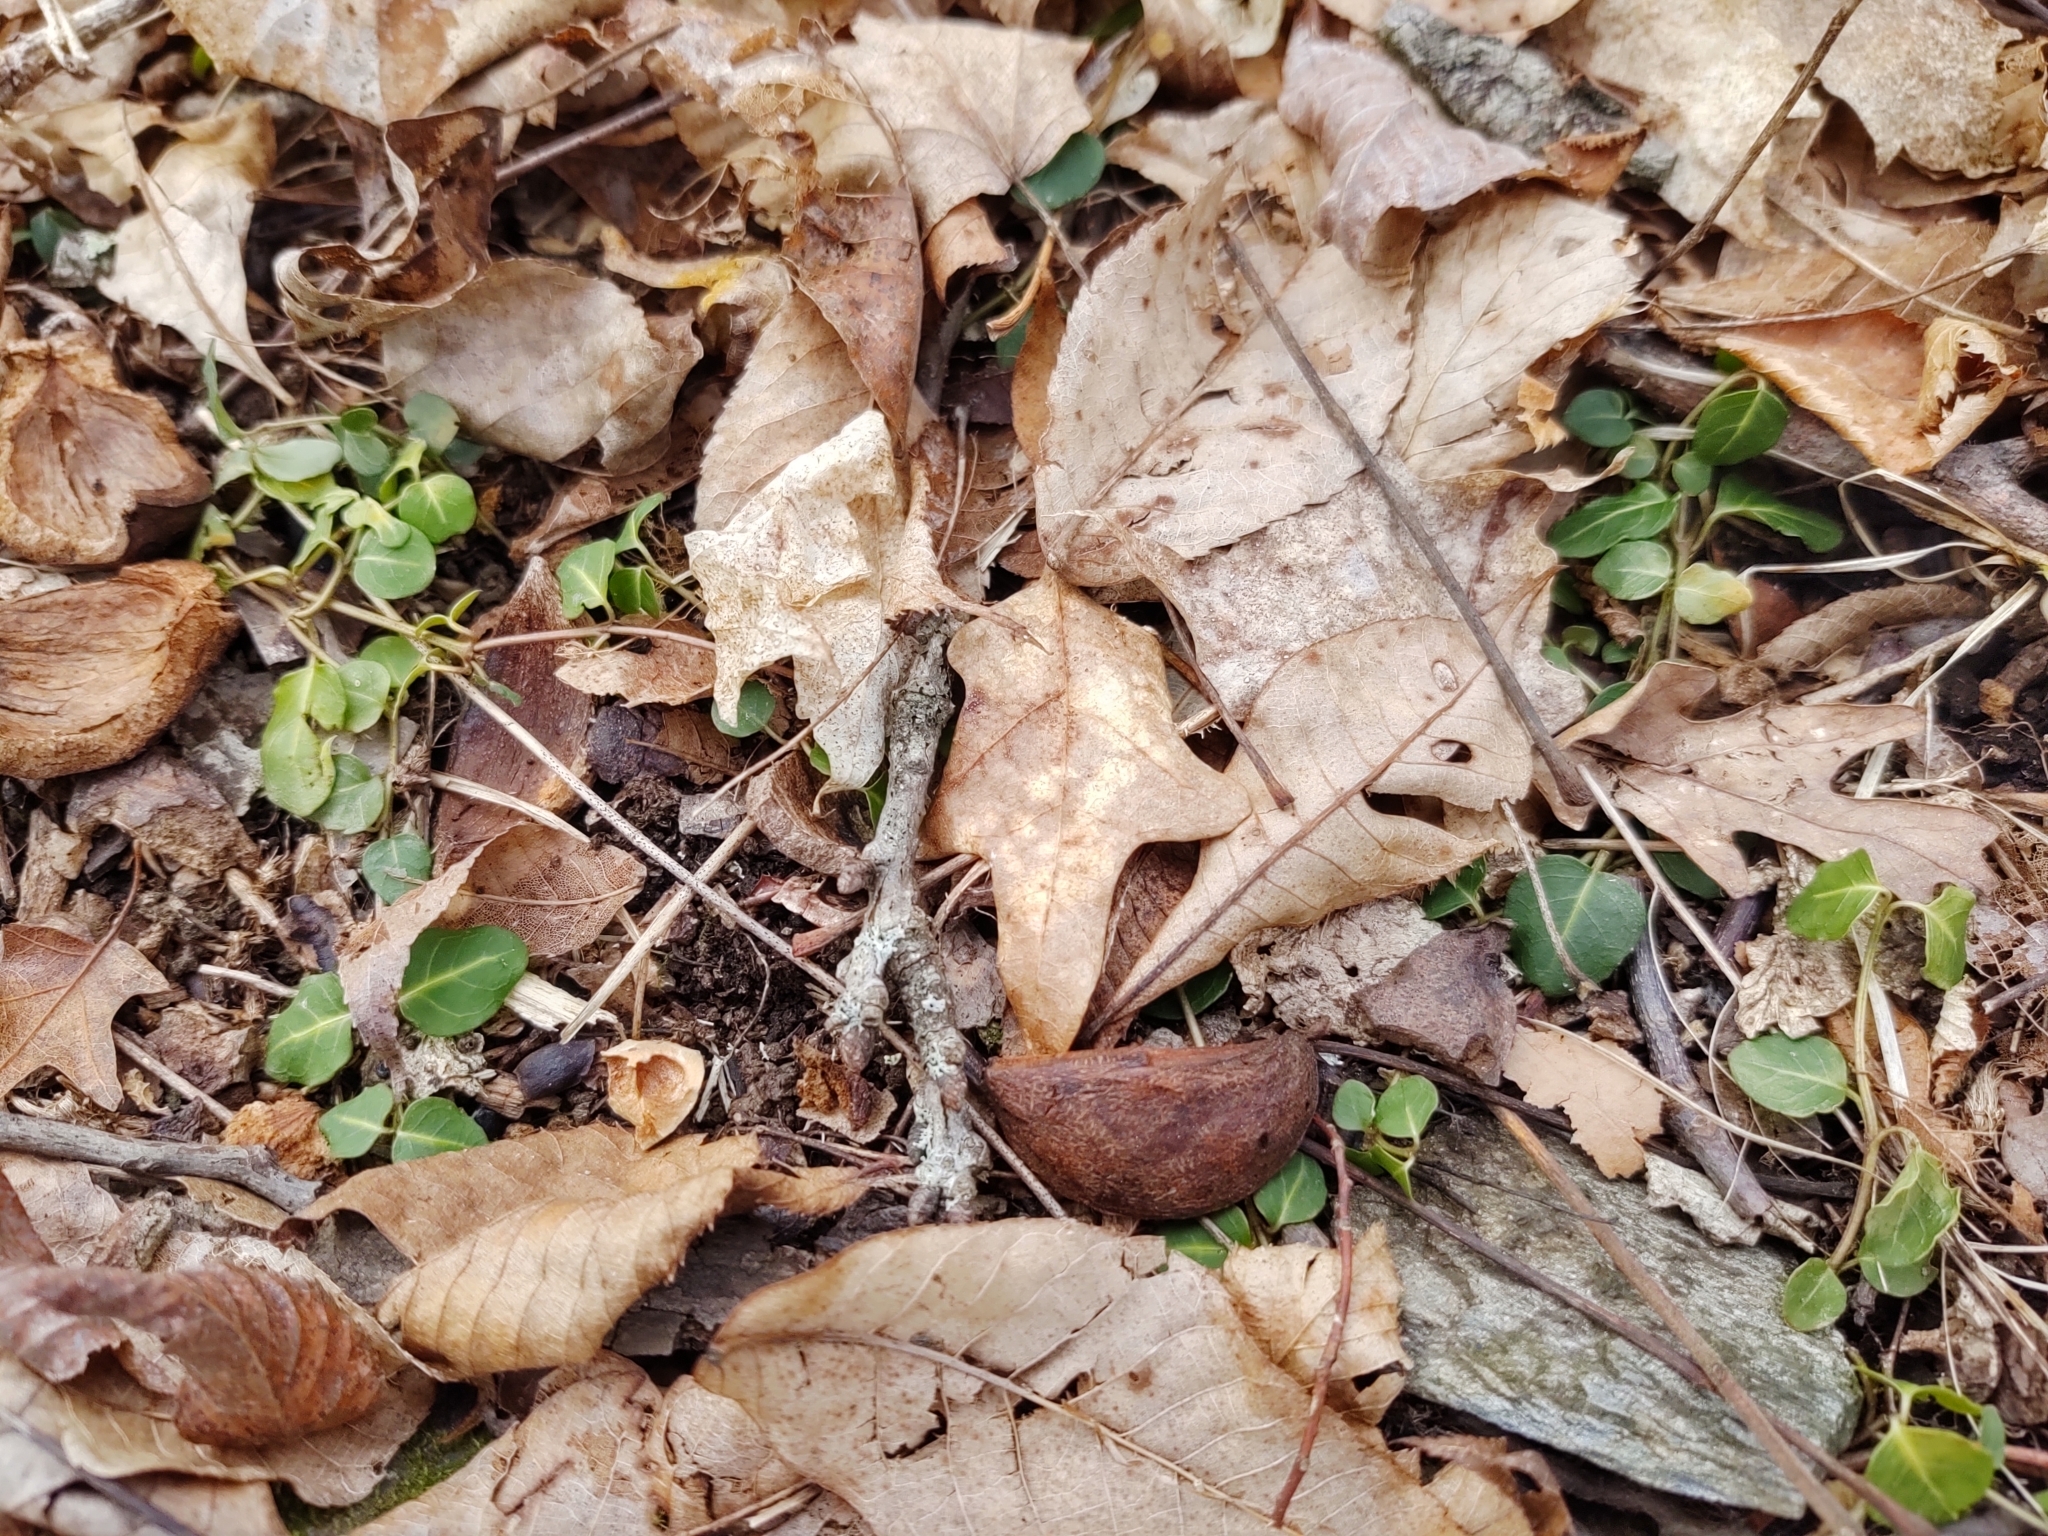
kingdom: Plantae
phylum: Tracheophyta
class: Magnoliopsida
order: Gentianales
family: Rubiaceae
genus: Mitchella
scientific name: Mitchella repens
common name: Partridge-berry
